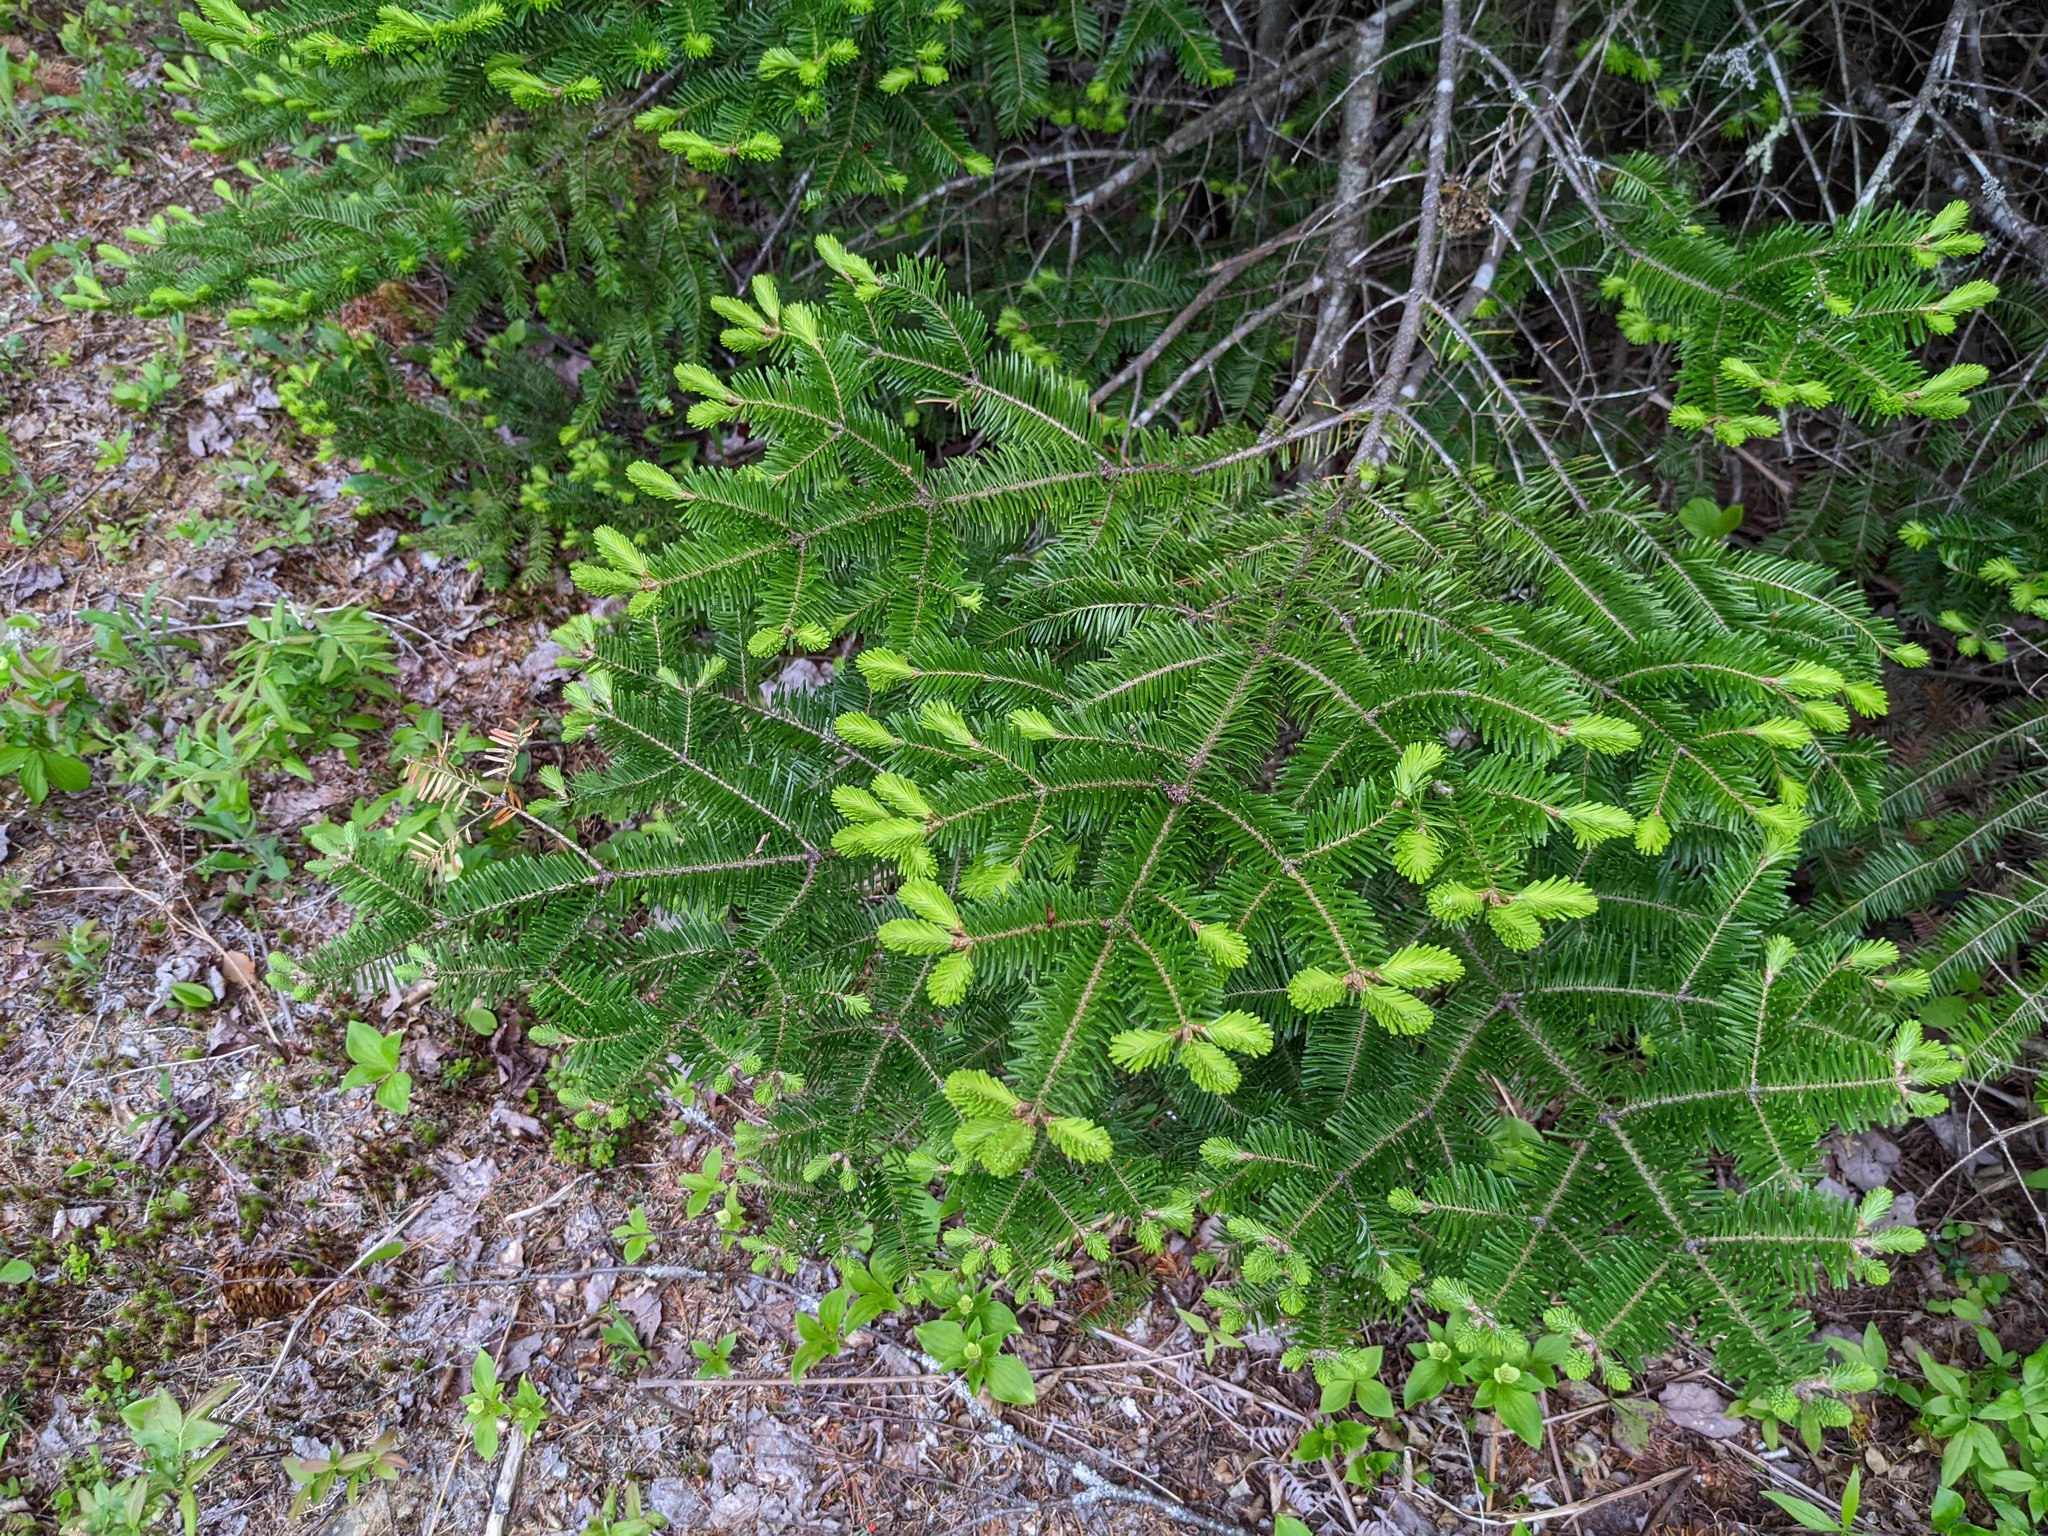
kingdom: Plantae
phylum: Tracheophyta
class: Pinopsida
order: Pinales
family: Pinaceae
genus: Abies
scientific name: Abies balsamea
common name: Balsam fir
